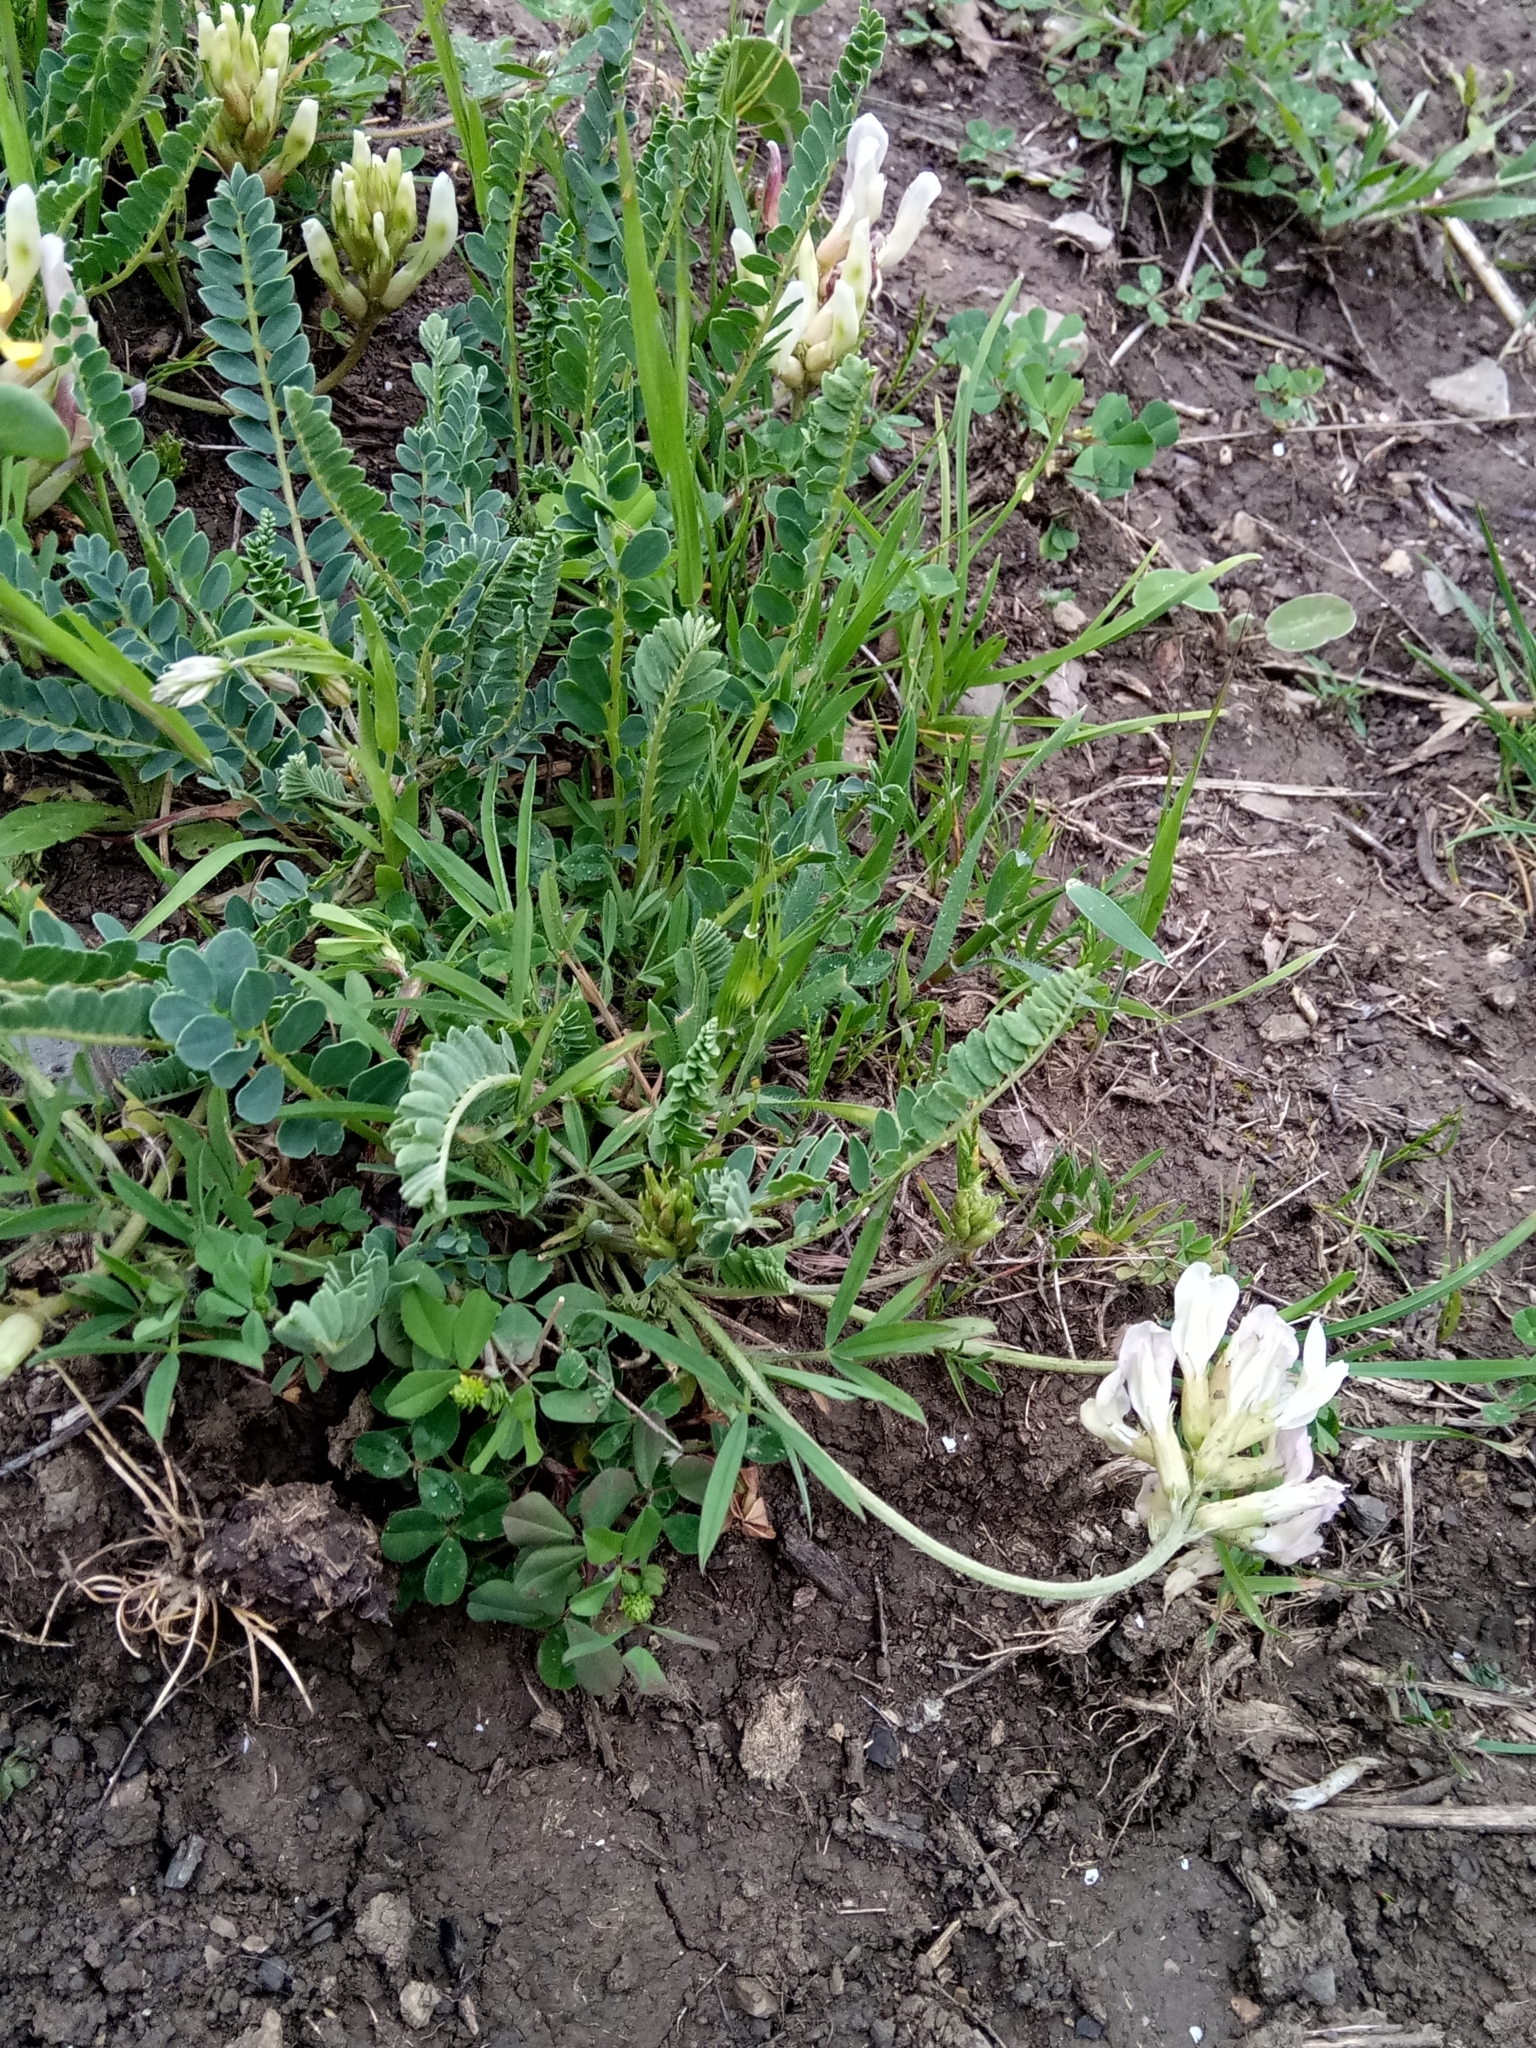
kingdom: Plantae
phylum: Tracheophyta
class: Magnoliopsida
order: Fabales
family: Fabaceae
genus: Astragalus
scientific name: Astragalus monspessulanus
